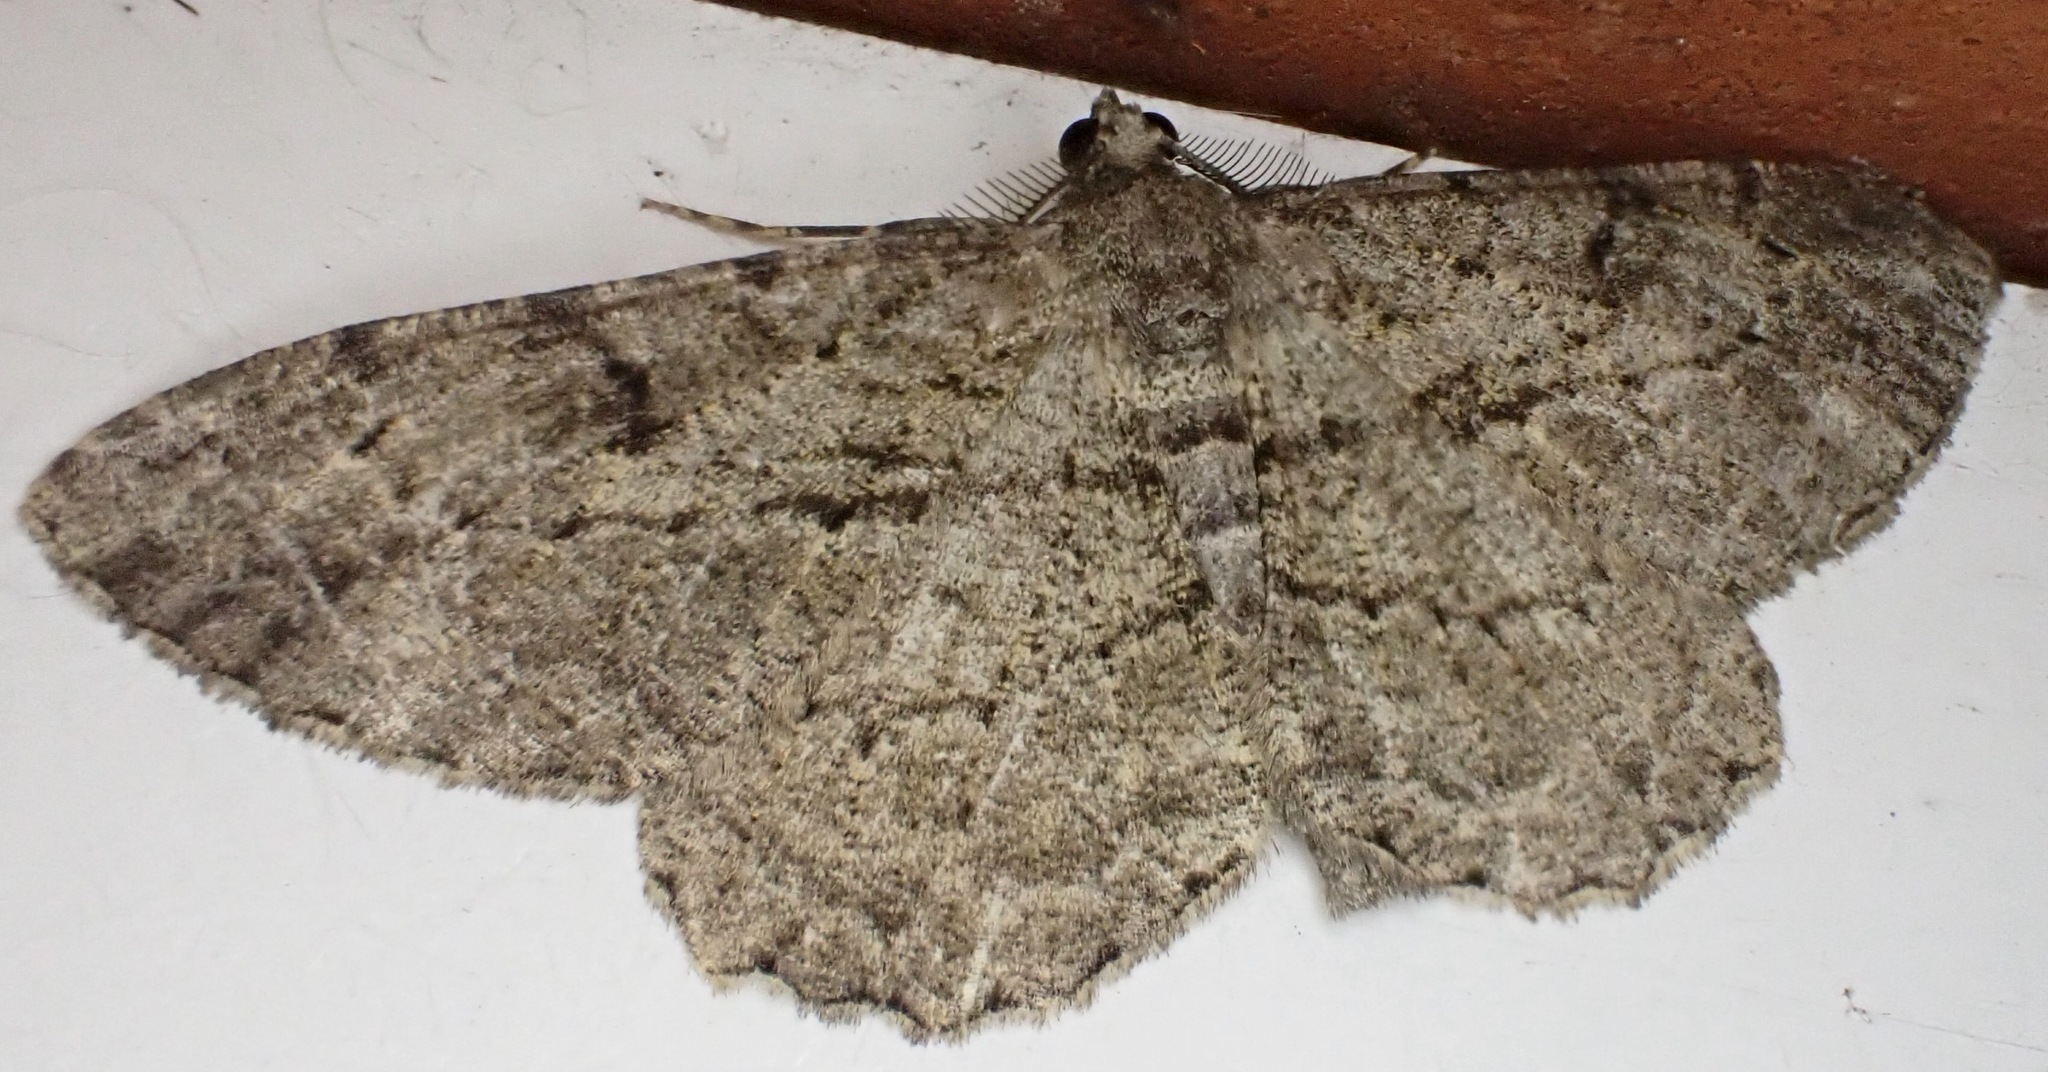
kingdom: Animalia
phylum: Arthropoda
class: Insecta
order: Lepidoptera
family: Geometridae
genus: Peribatodes
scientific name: Peribatodes rhomboidaria
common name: Willow beauty
